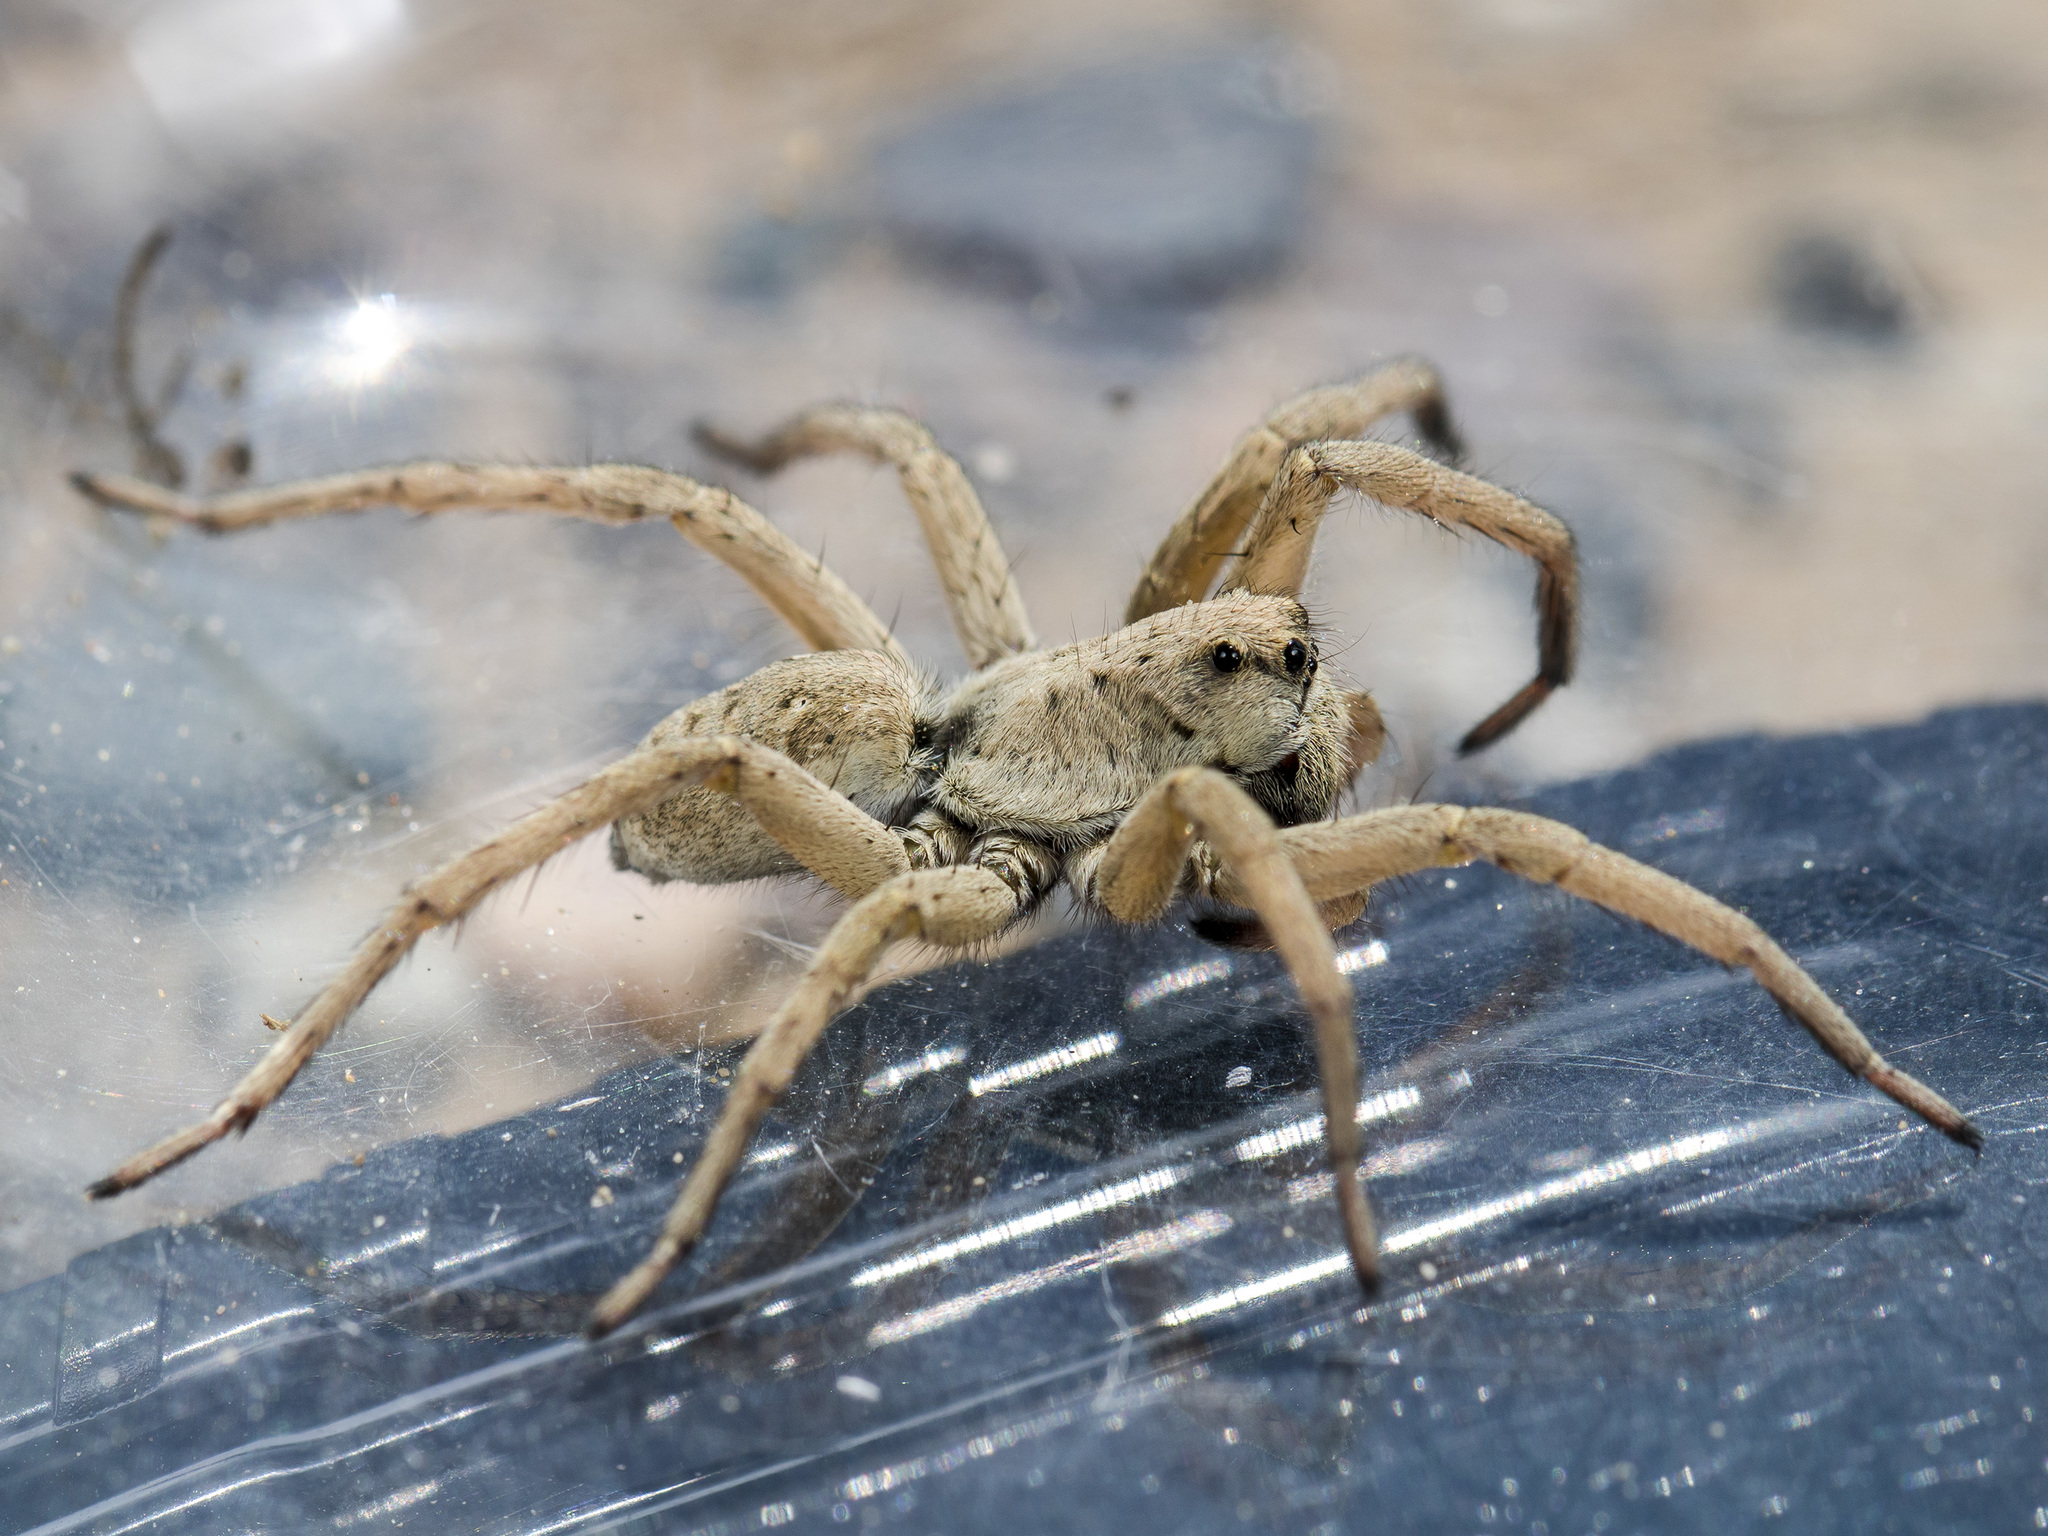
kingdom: Animalia
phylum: Arthropoda
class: Arachnida
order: Araneae
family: Lycosidae
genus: Alopecosa
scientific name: Alopecosa marikovskyi
